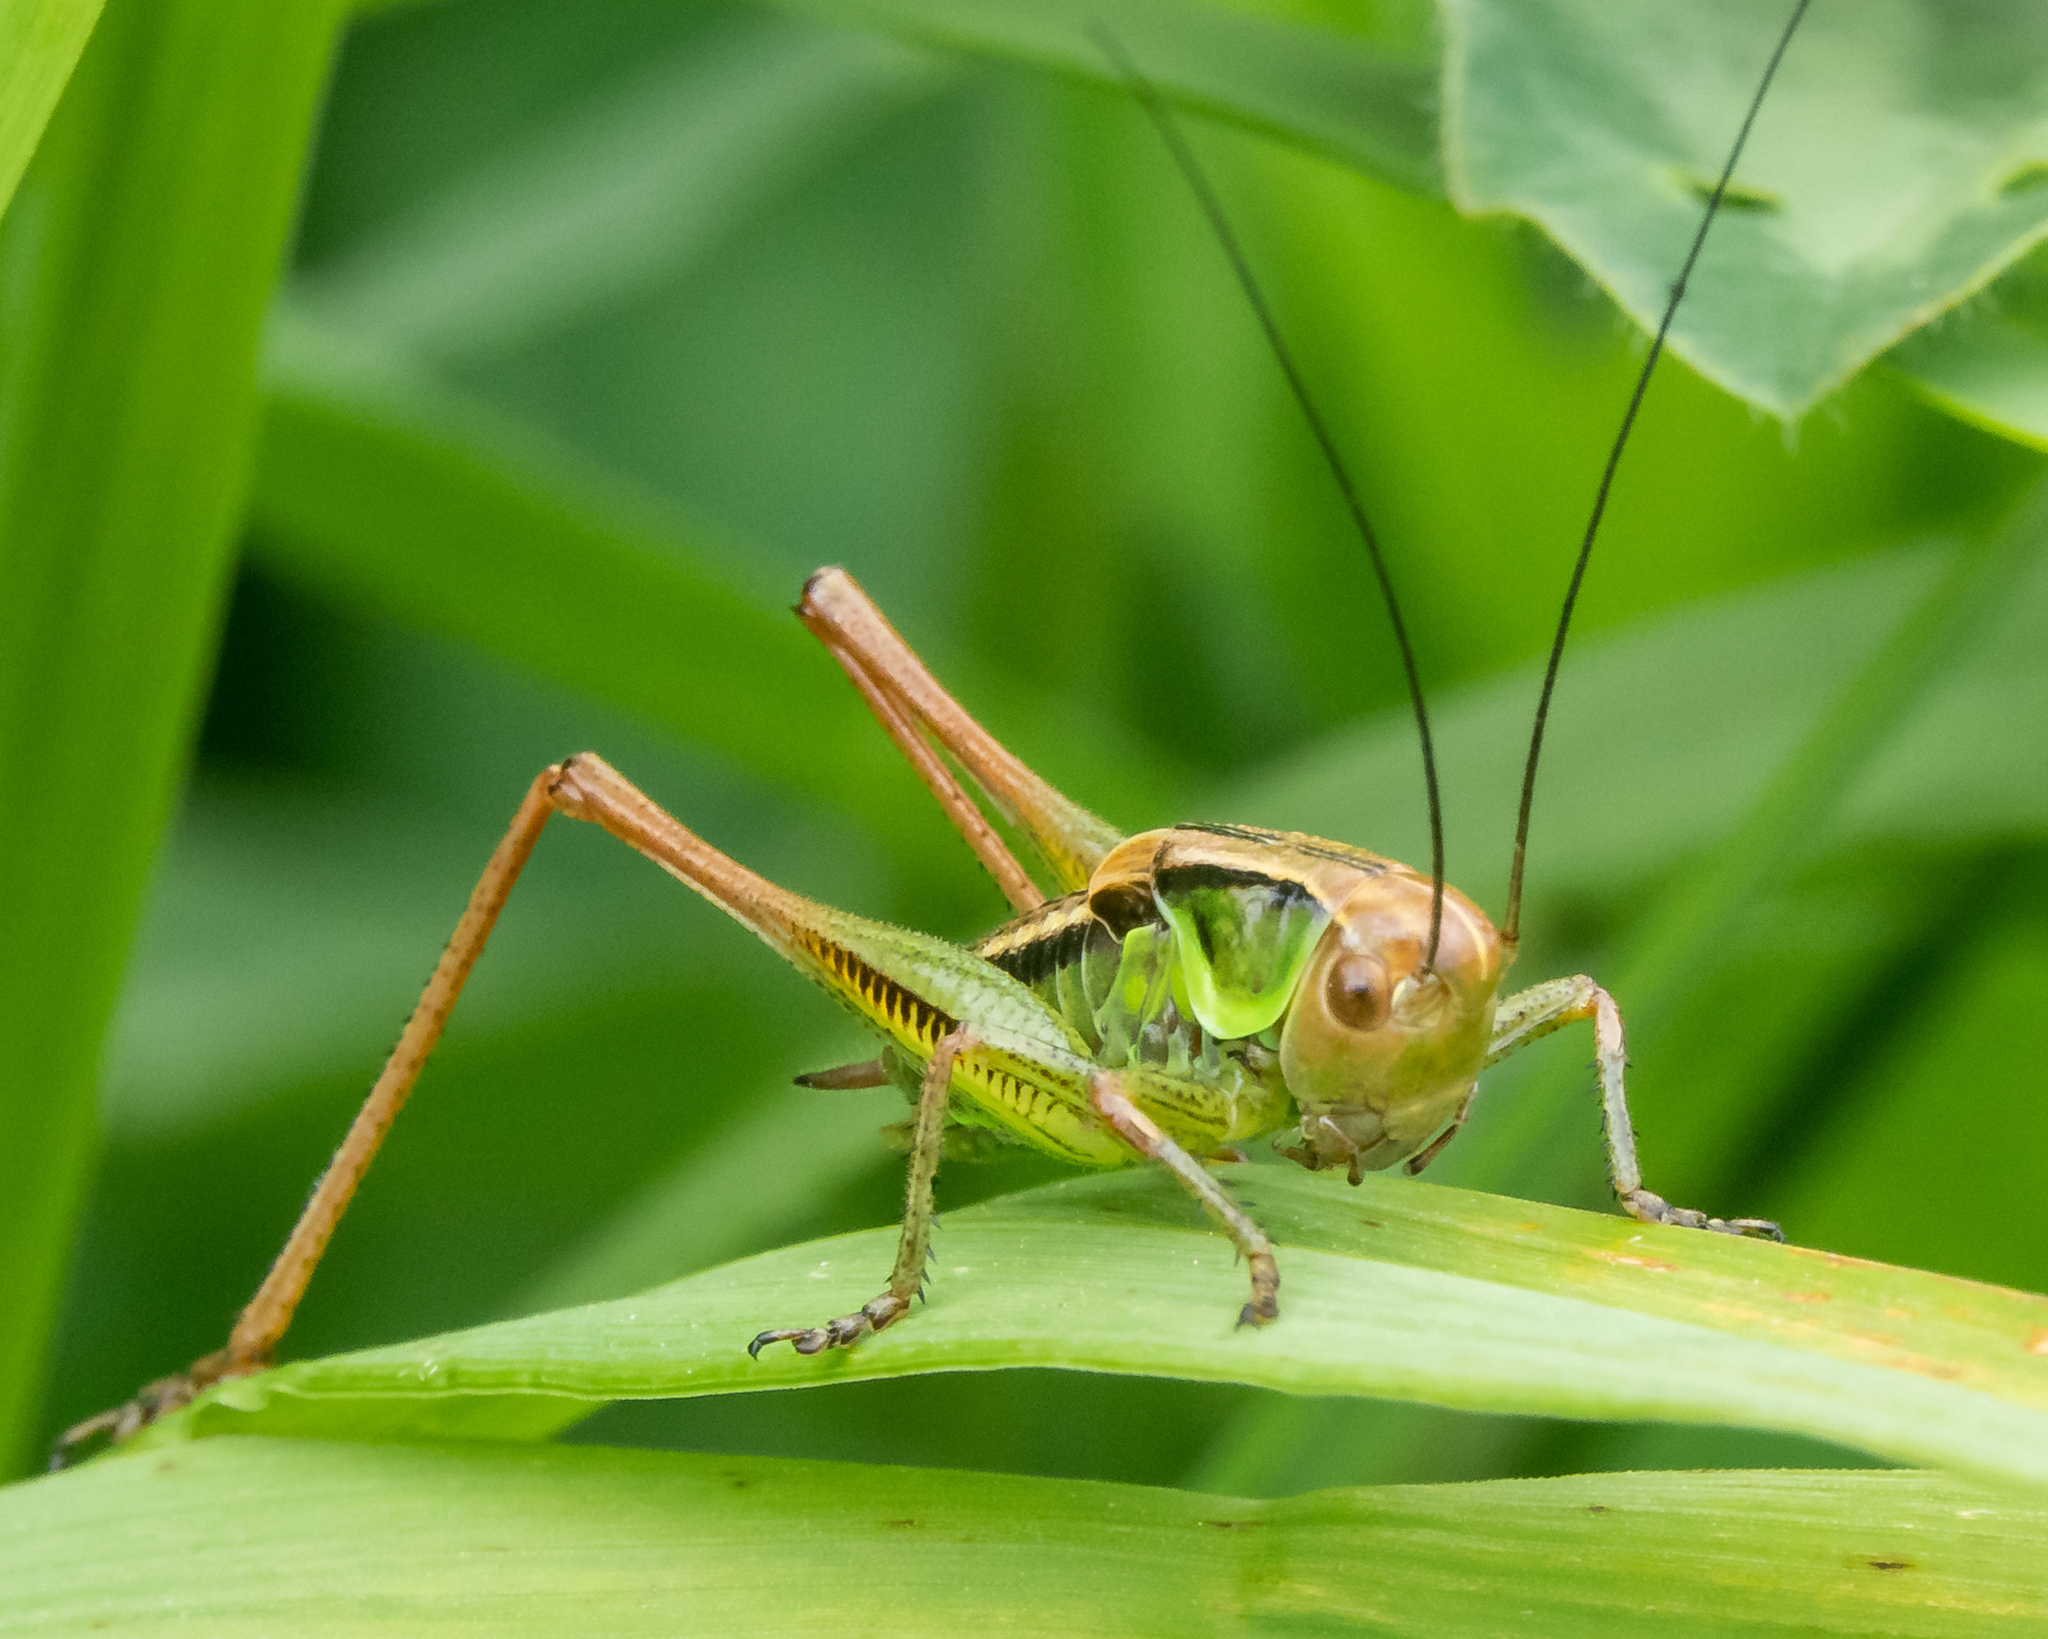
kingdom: Animalia
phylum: Arthropoda
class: Insecta
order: Orthoptera
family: Tettigoniidae
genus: Roeseliana
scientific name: Roeseliana roeselii
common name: Roesel's bush cricket
